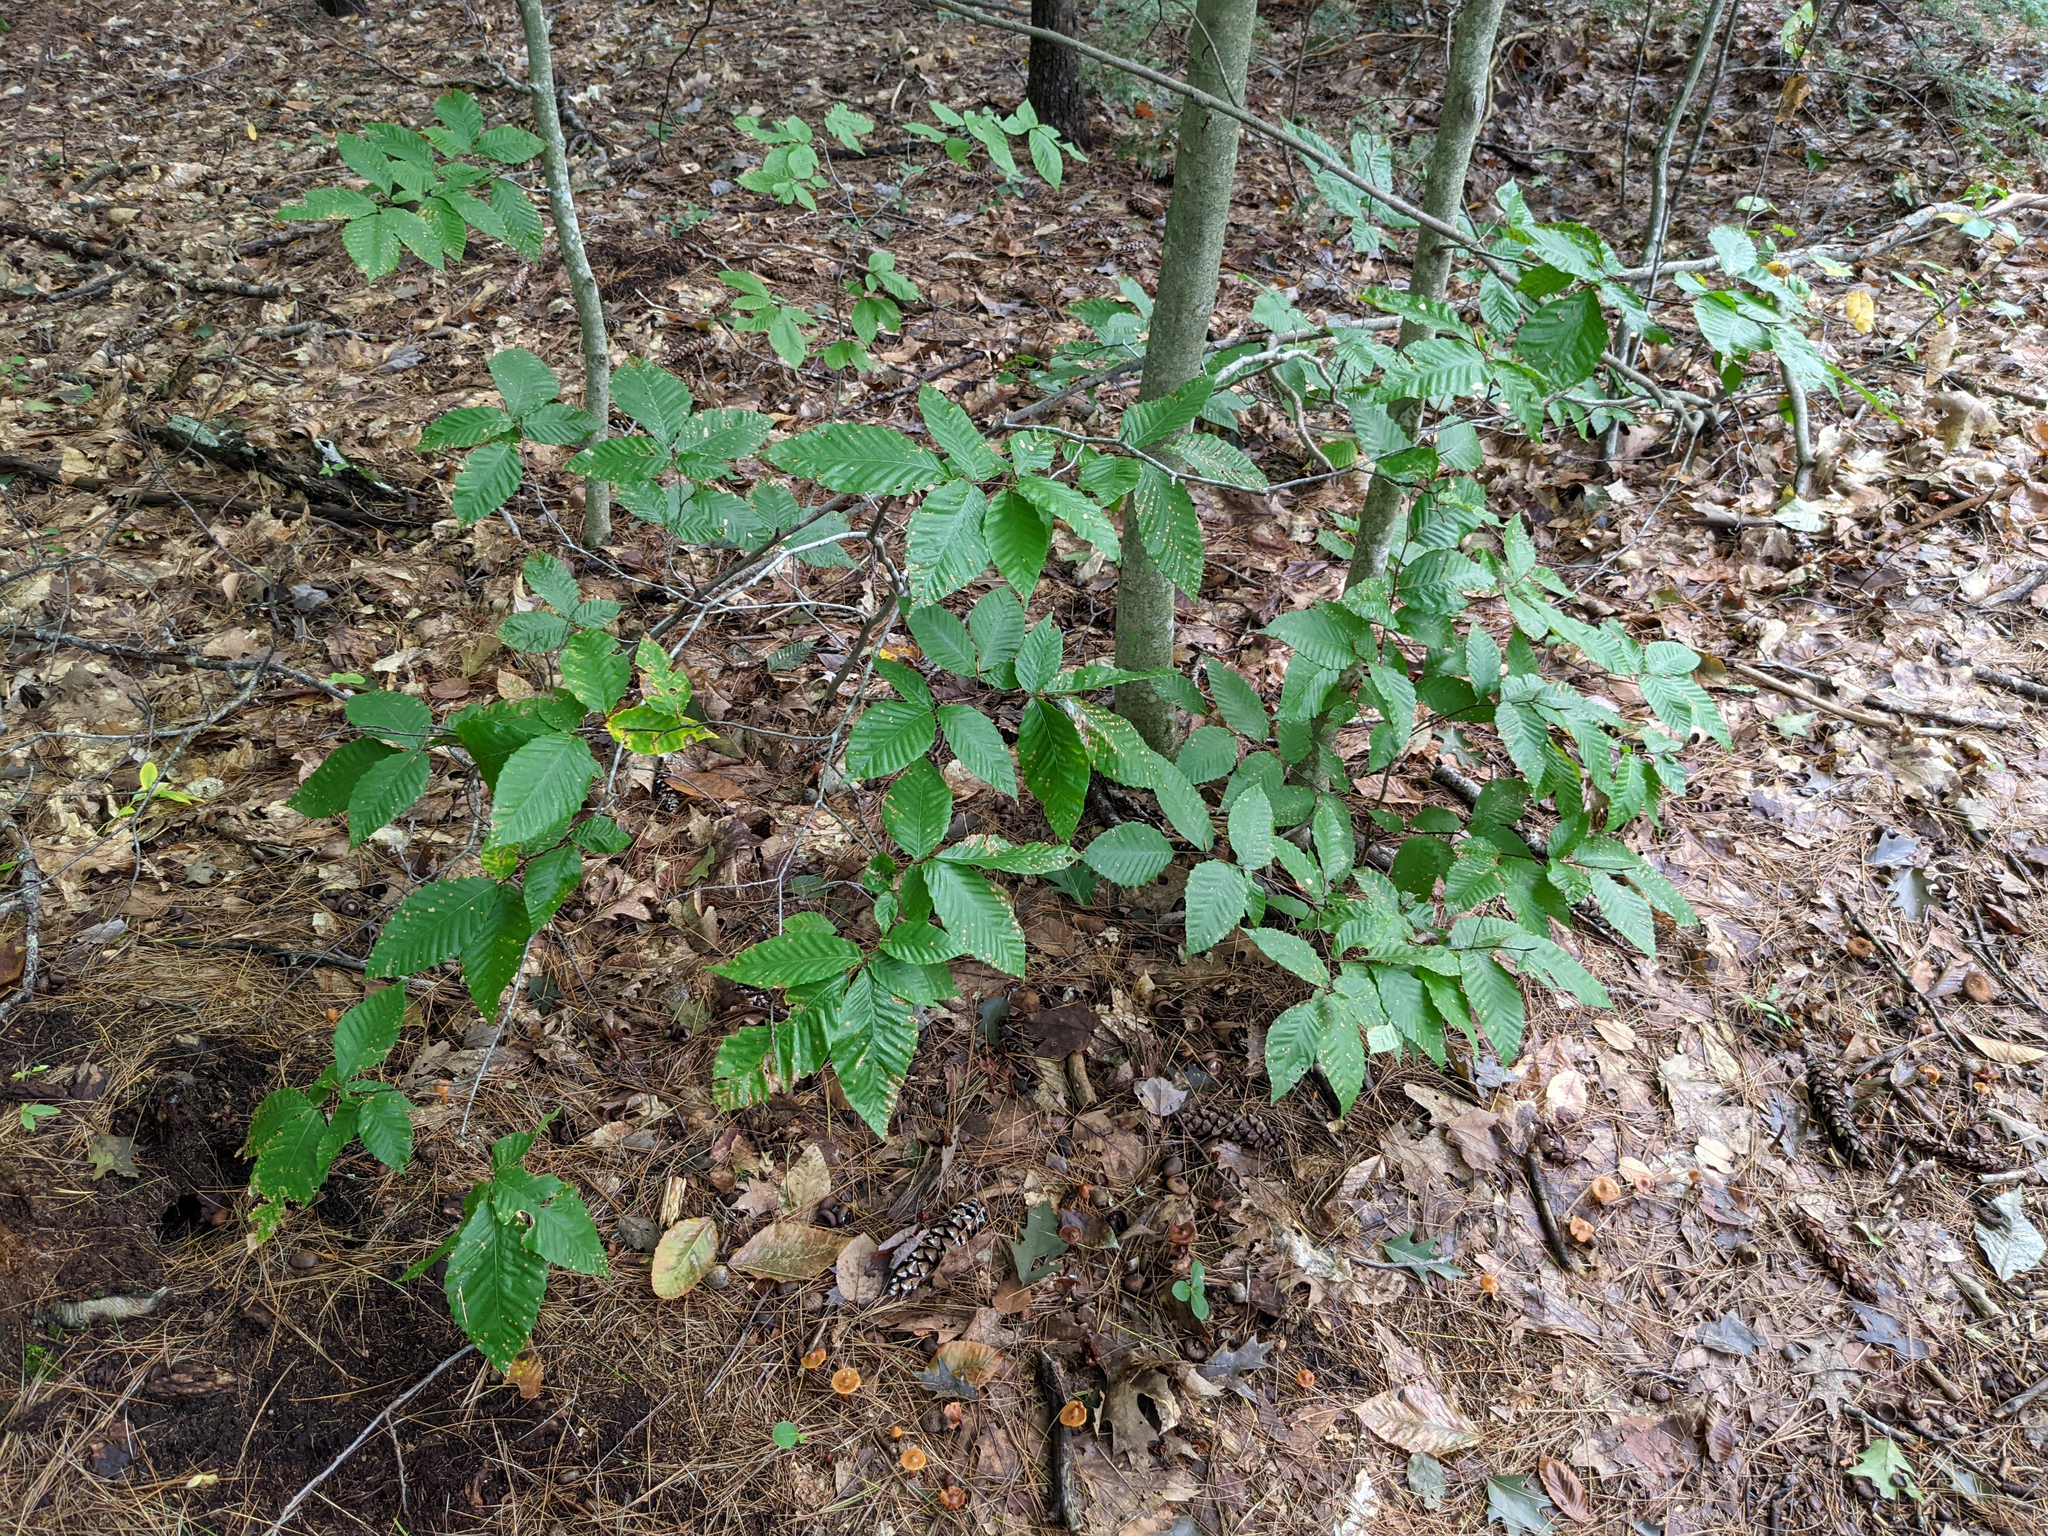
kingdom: Plantae
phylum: Tracheophyta
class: Magnoliopsida
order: Fagales
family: Fagaceae
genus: Fagus
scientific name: Fagus grandifolia
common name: American beech
